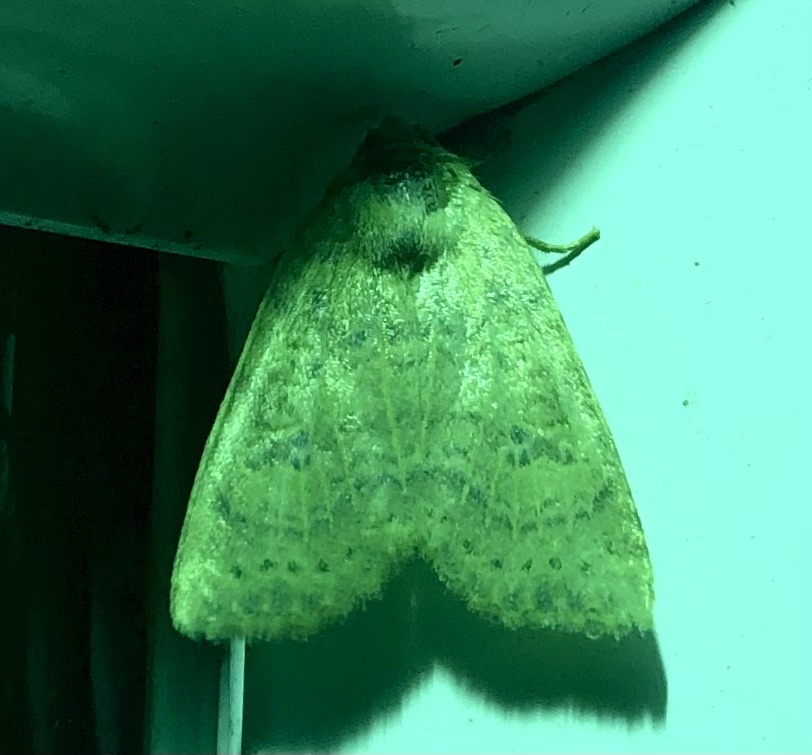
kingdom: Animalia
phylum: Arthropoda
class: Insecta
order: Lepidoptera
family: Noctuidae
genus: Anathix
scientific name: Anathix ralla
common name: Dotted sallow
